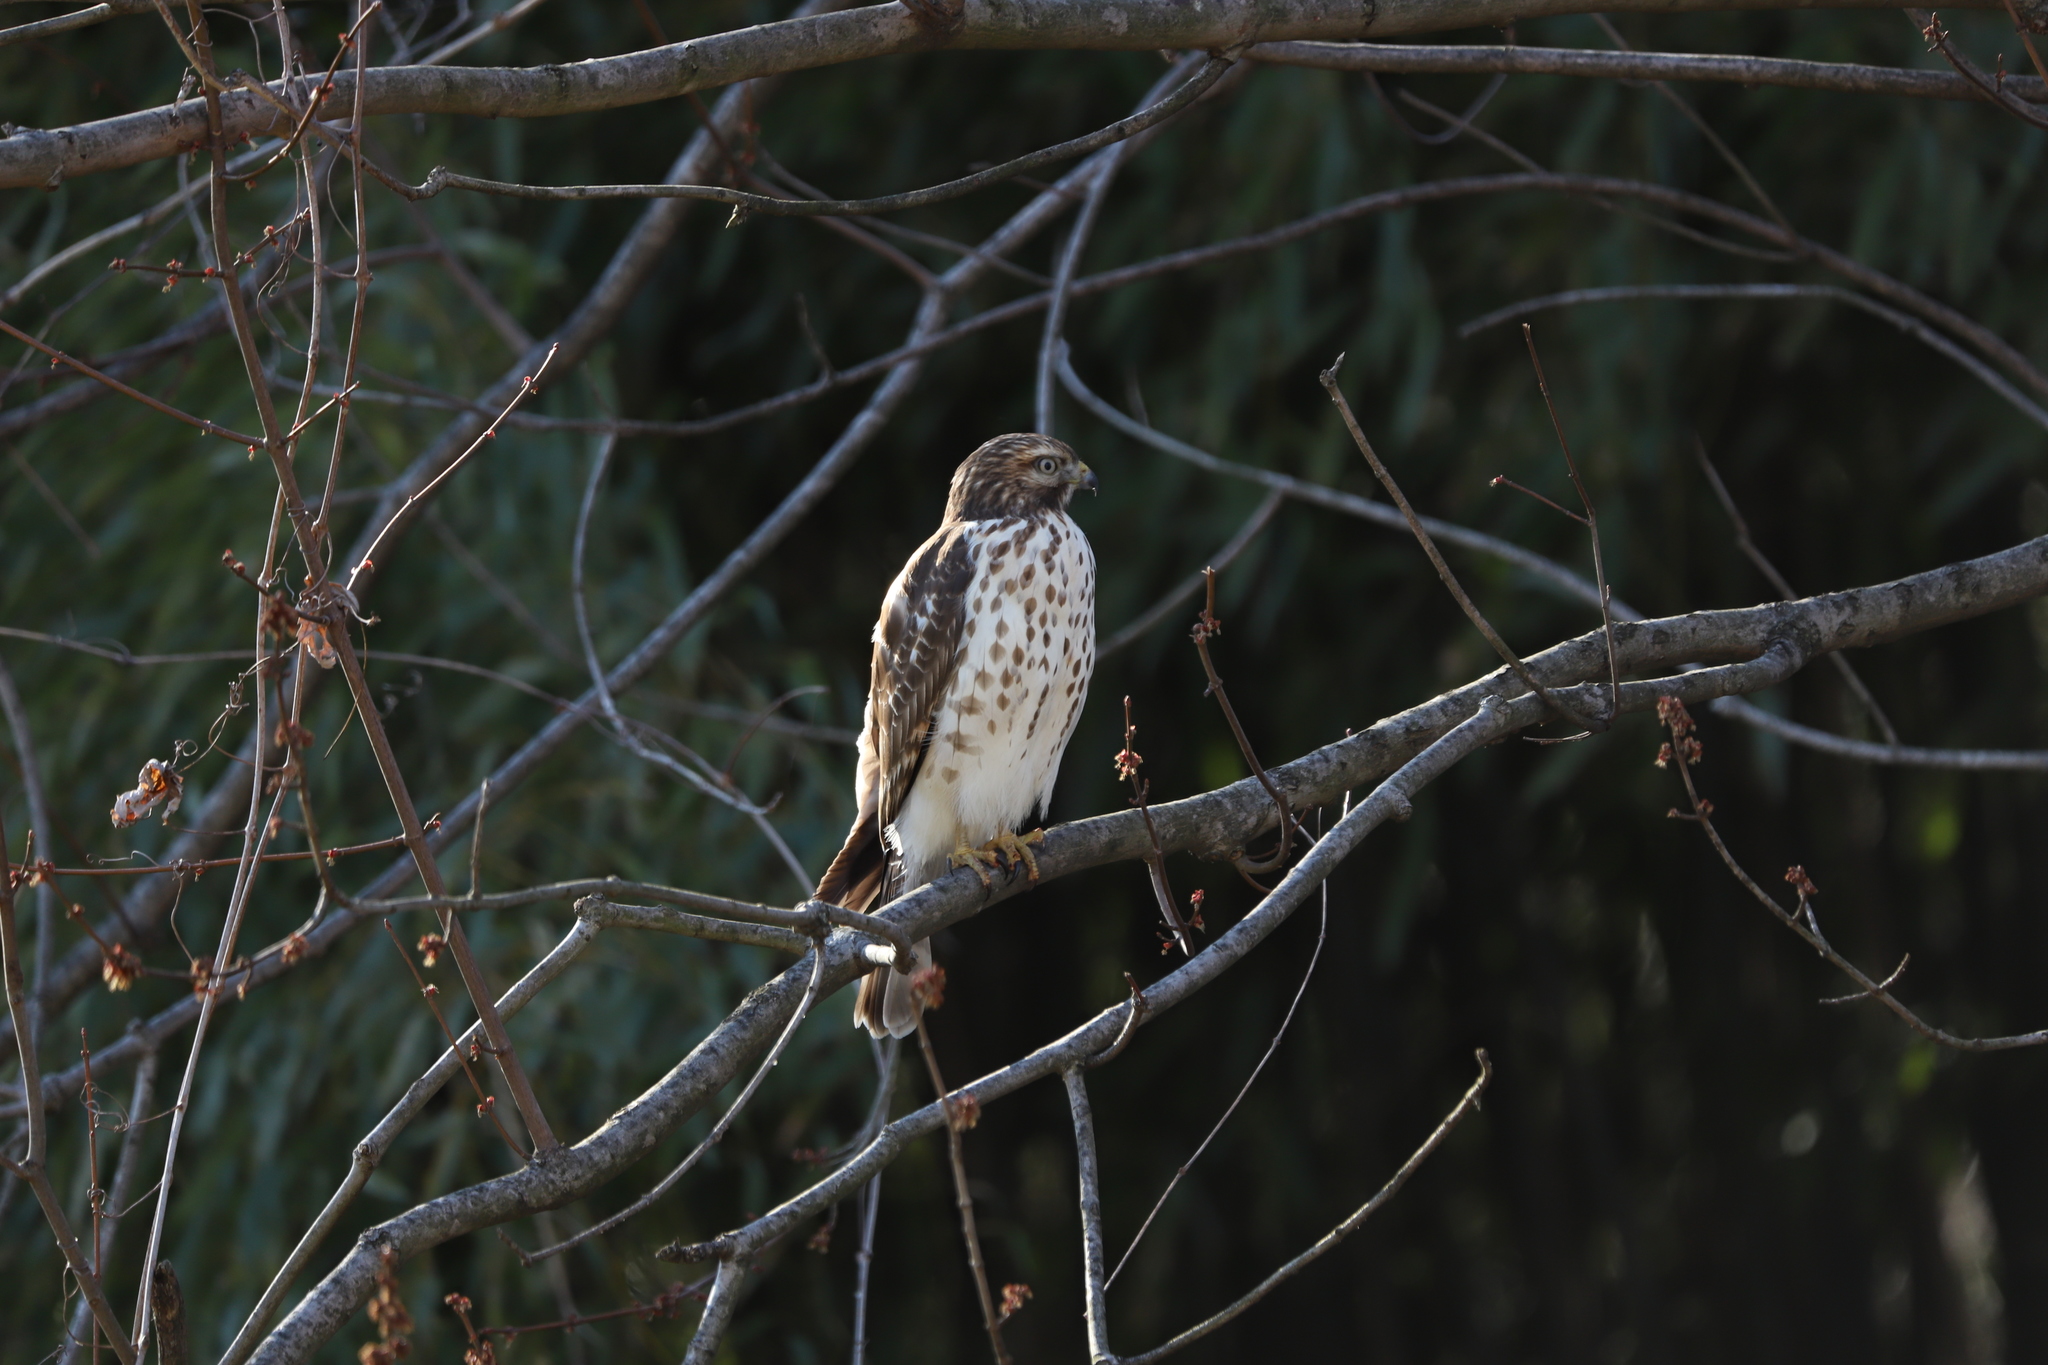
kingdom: Animalia
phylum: Chordata
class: Aves
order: Accipitriformes
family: Accipitridae
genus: Buteo
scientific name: Buteo lineatus
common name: Red-shouldered hawk
